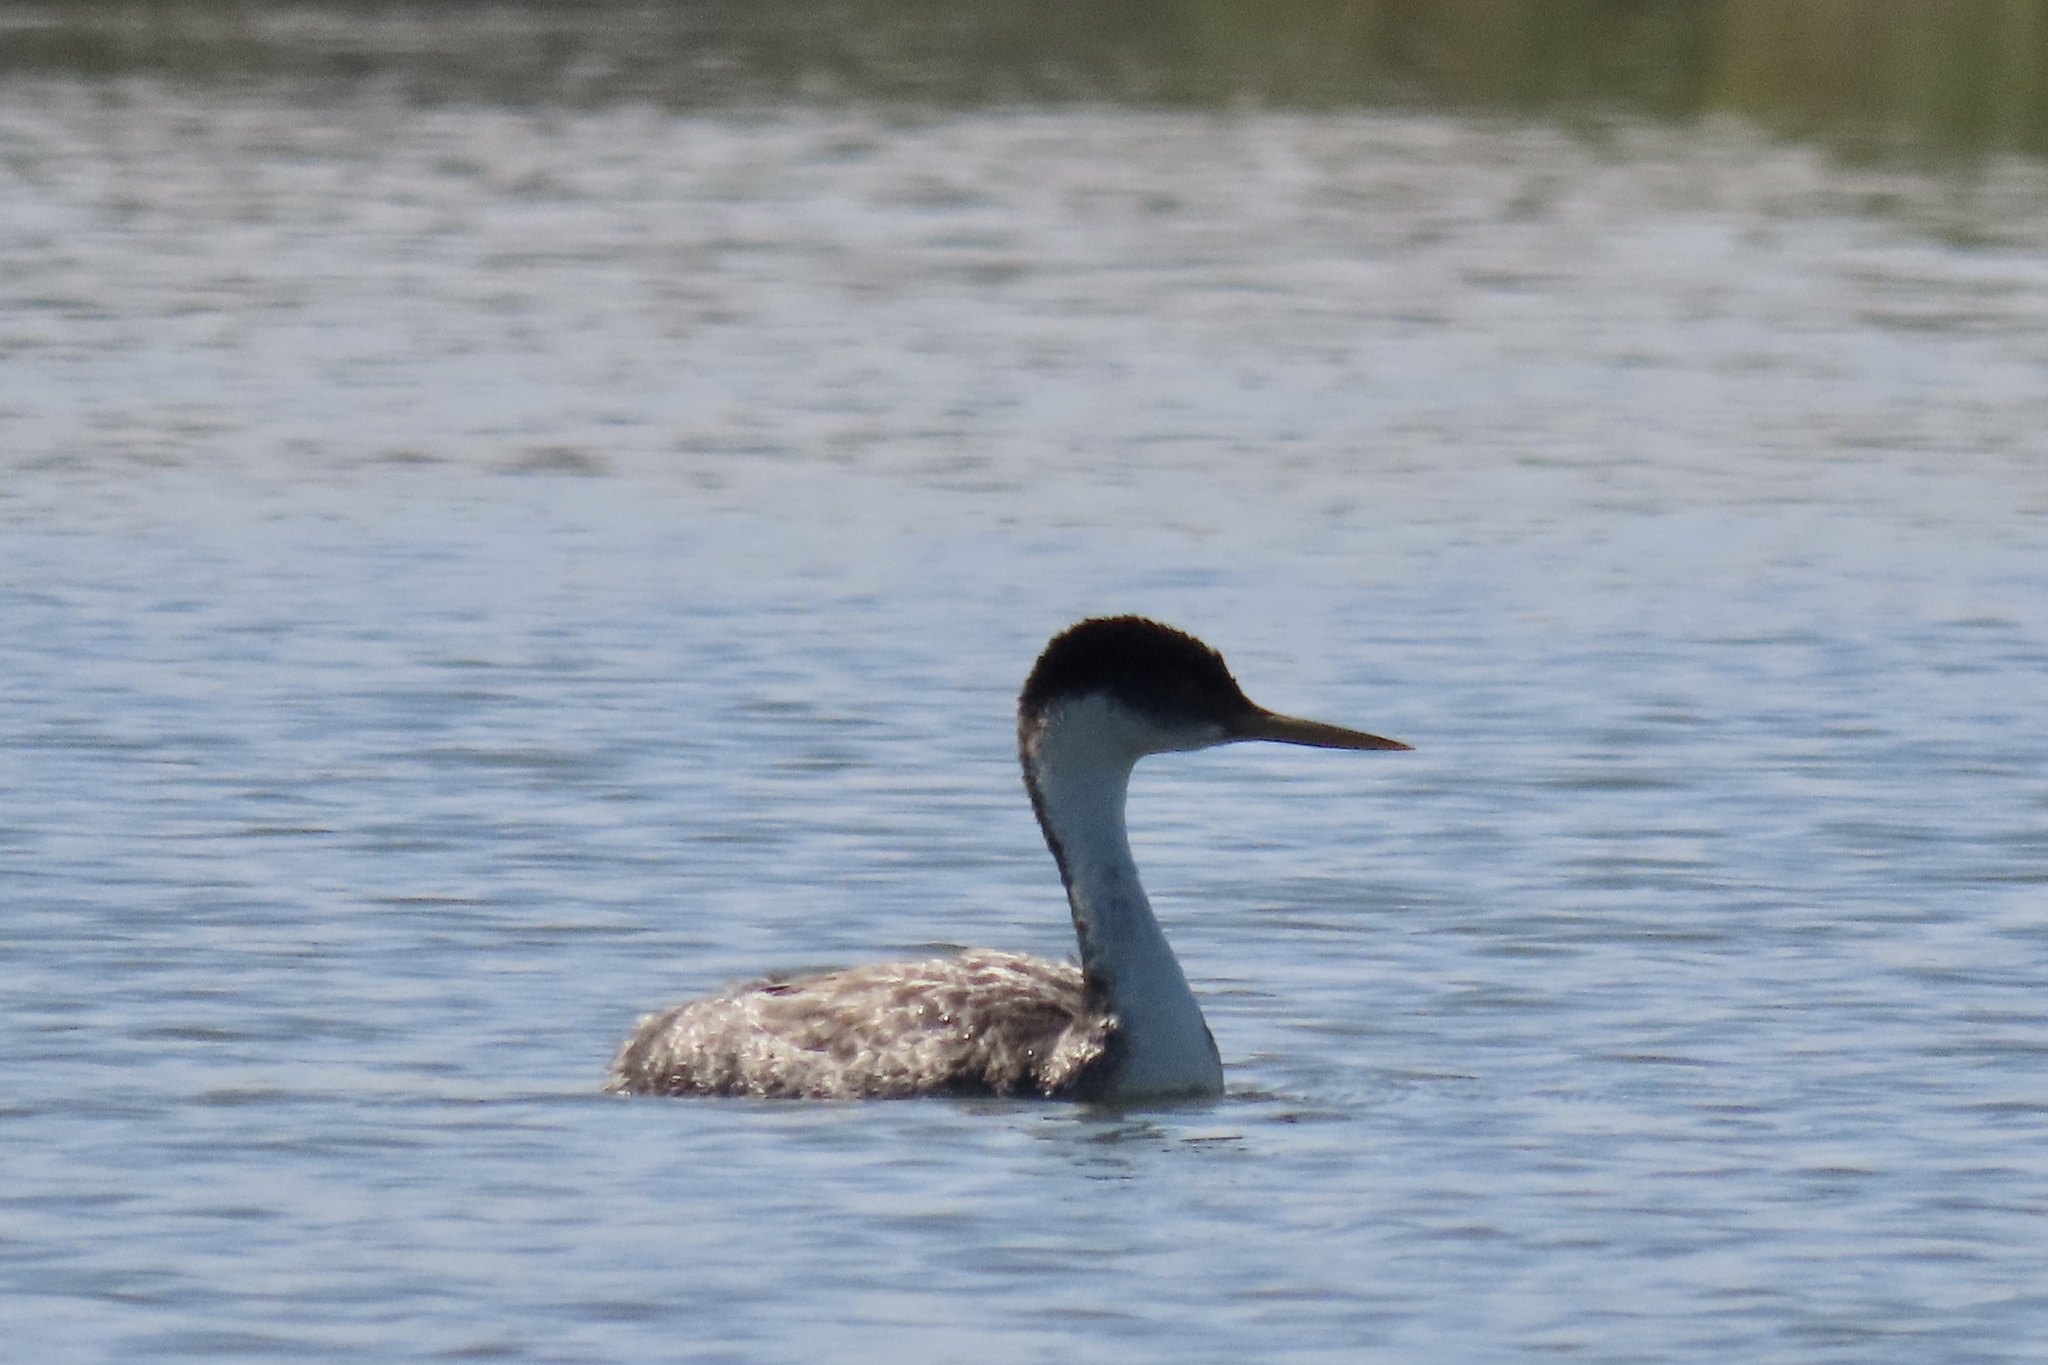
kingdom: Animalia
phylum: Chordata
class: Aves
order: Podicipediformes
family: Podicipedidae
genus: Aechmophorus
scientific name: Aechmophorus occidentalis
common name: Western grebe
